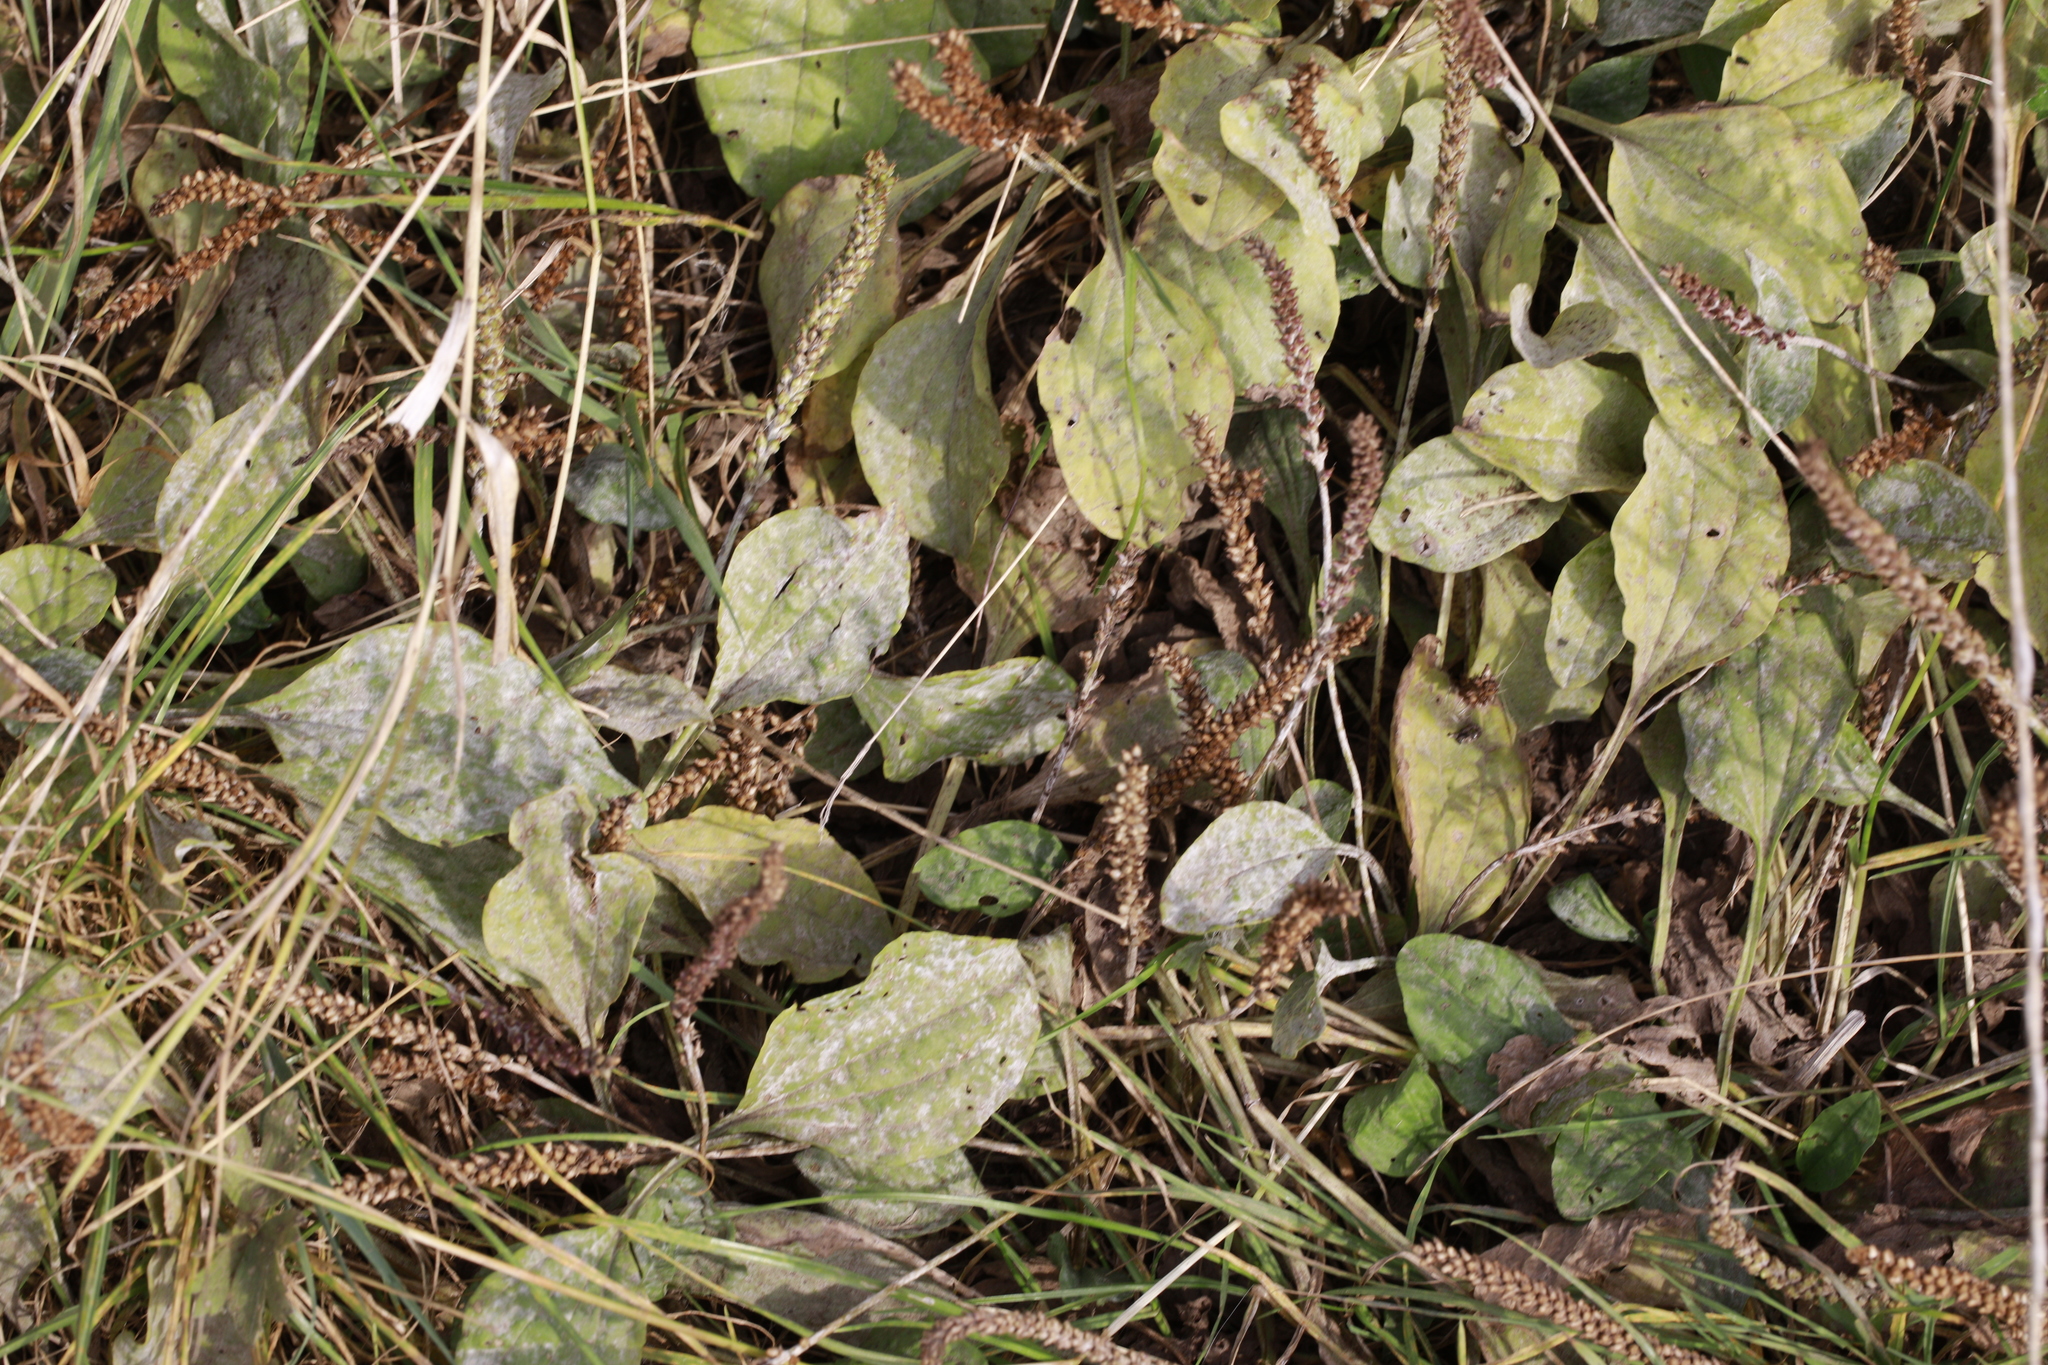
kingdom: Fungi
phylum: Ascomycota
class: Leotiomycetes
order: Helotiales
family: Erysiphaceae
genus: Golovinomyces
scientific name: Golovinomyces sordidus
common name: Plantain mildew
